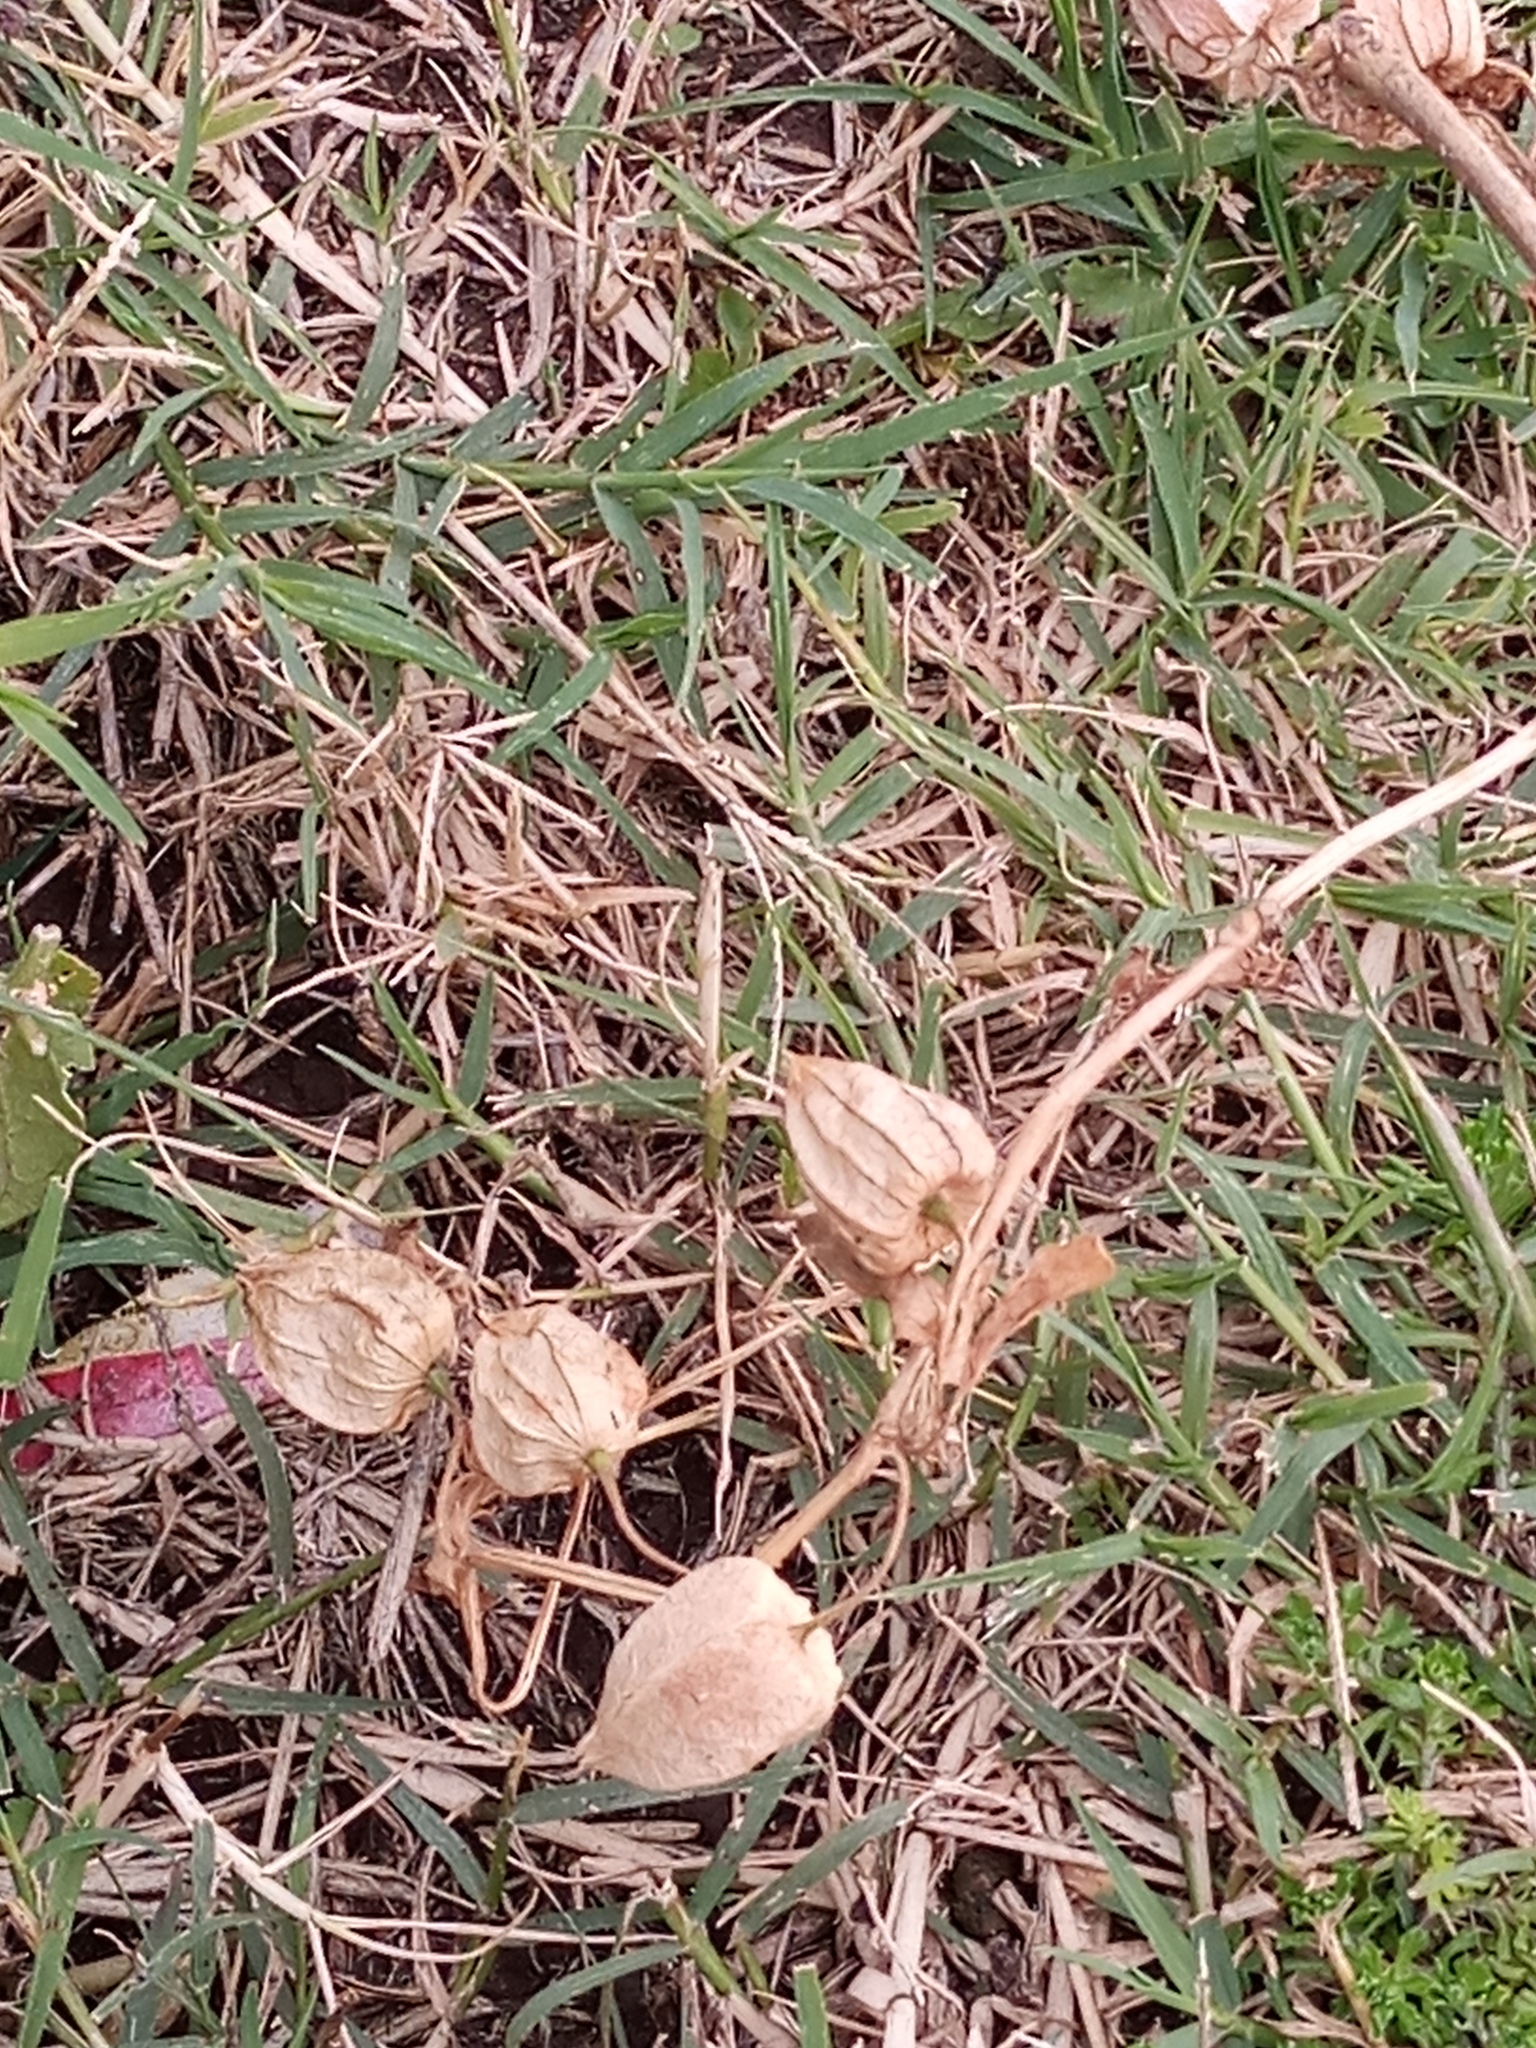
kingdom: Plantae
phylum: Tracheophyta
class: Magnoliopsida
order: Solanales
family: Solanaceae
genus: Physalis
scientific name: Physalis viscosa
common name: Stellate ground-cherry
